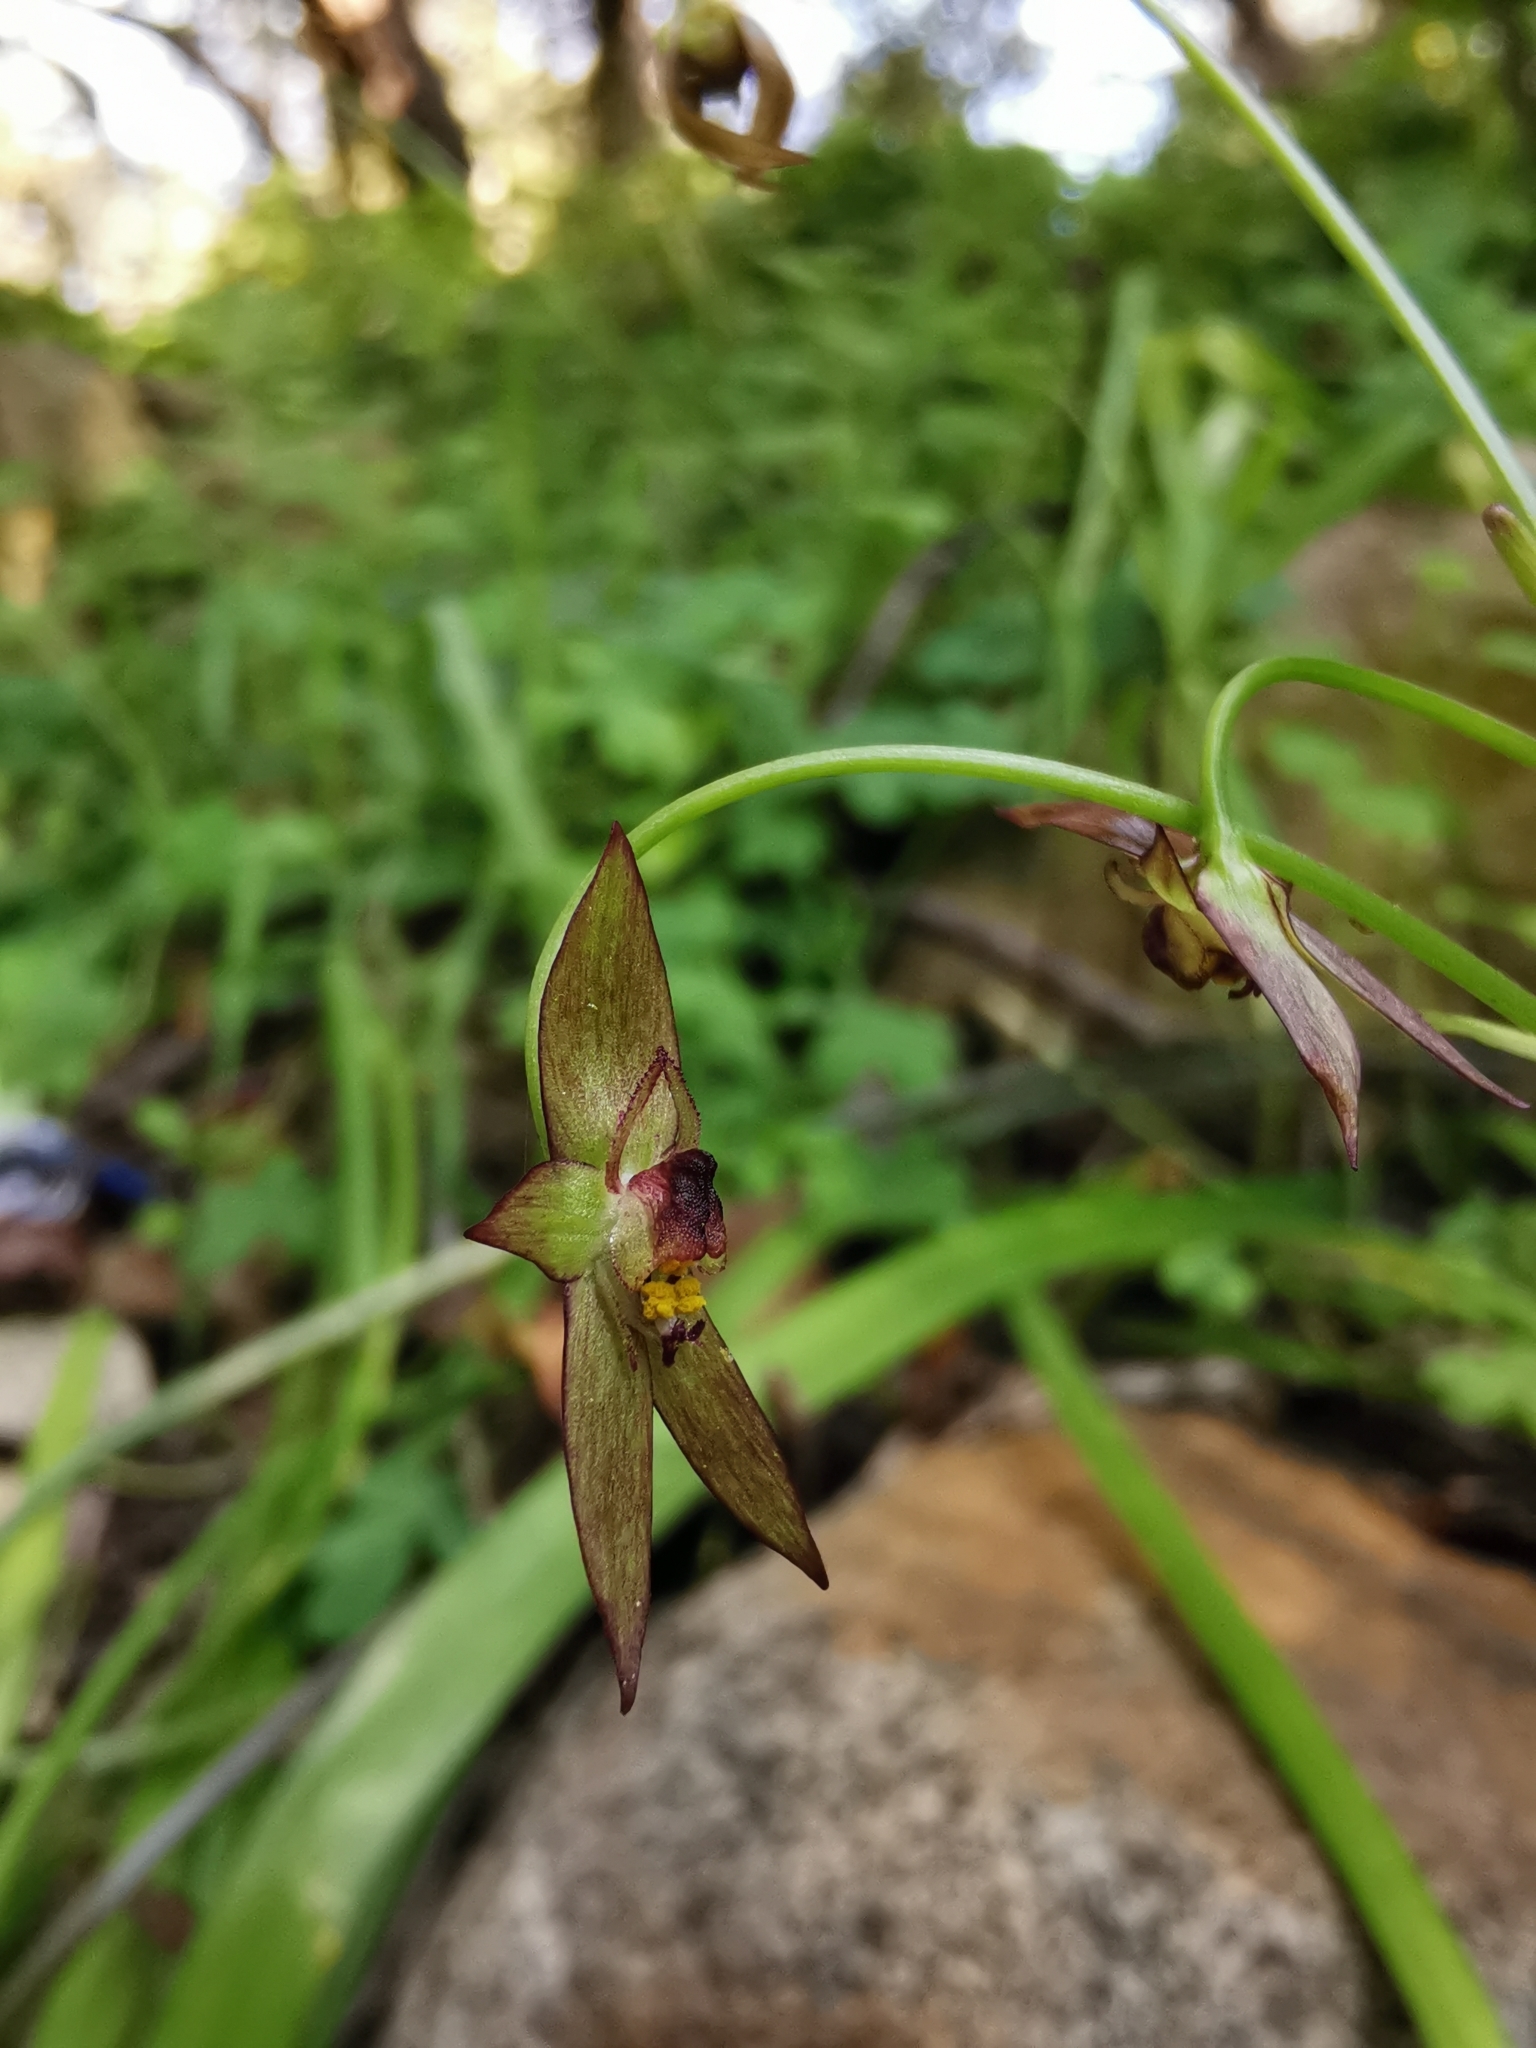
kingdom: Plantae
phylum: Tracheophyta
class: Liliopsida
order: Asparagales
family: Amaryllidaceae
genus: Gilliesia
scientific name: Gilliesia graminea
